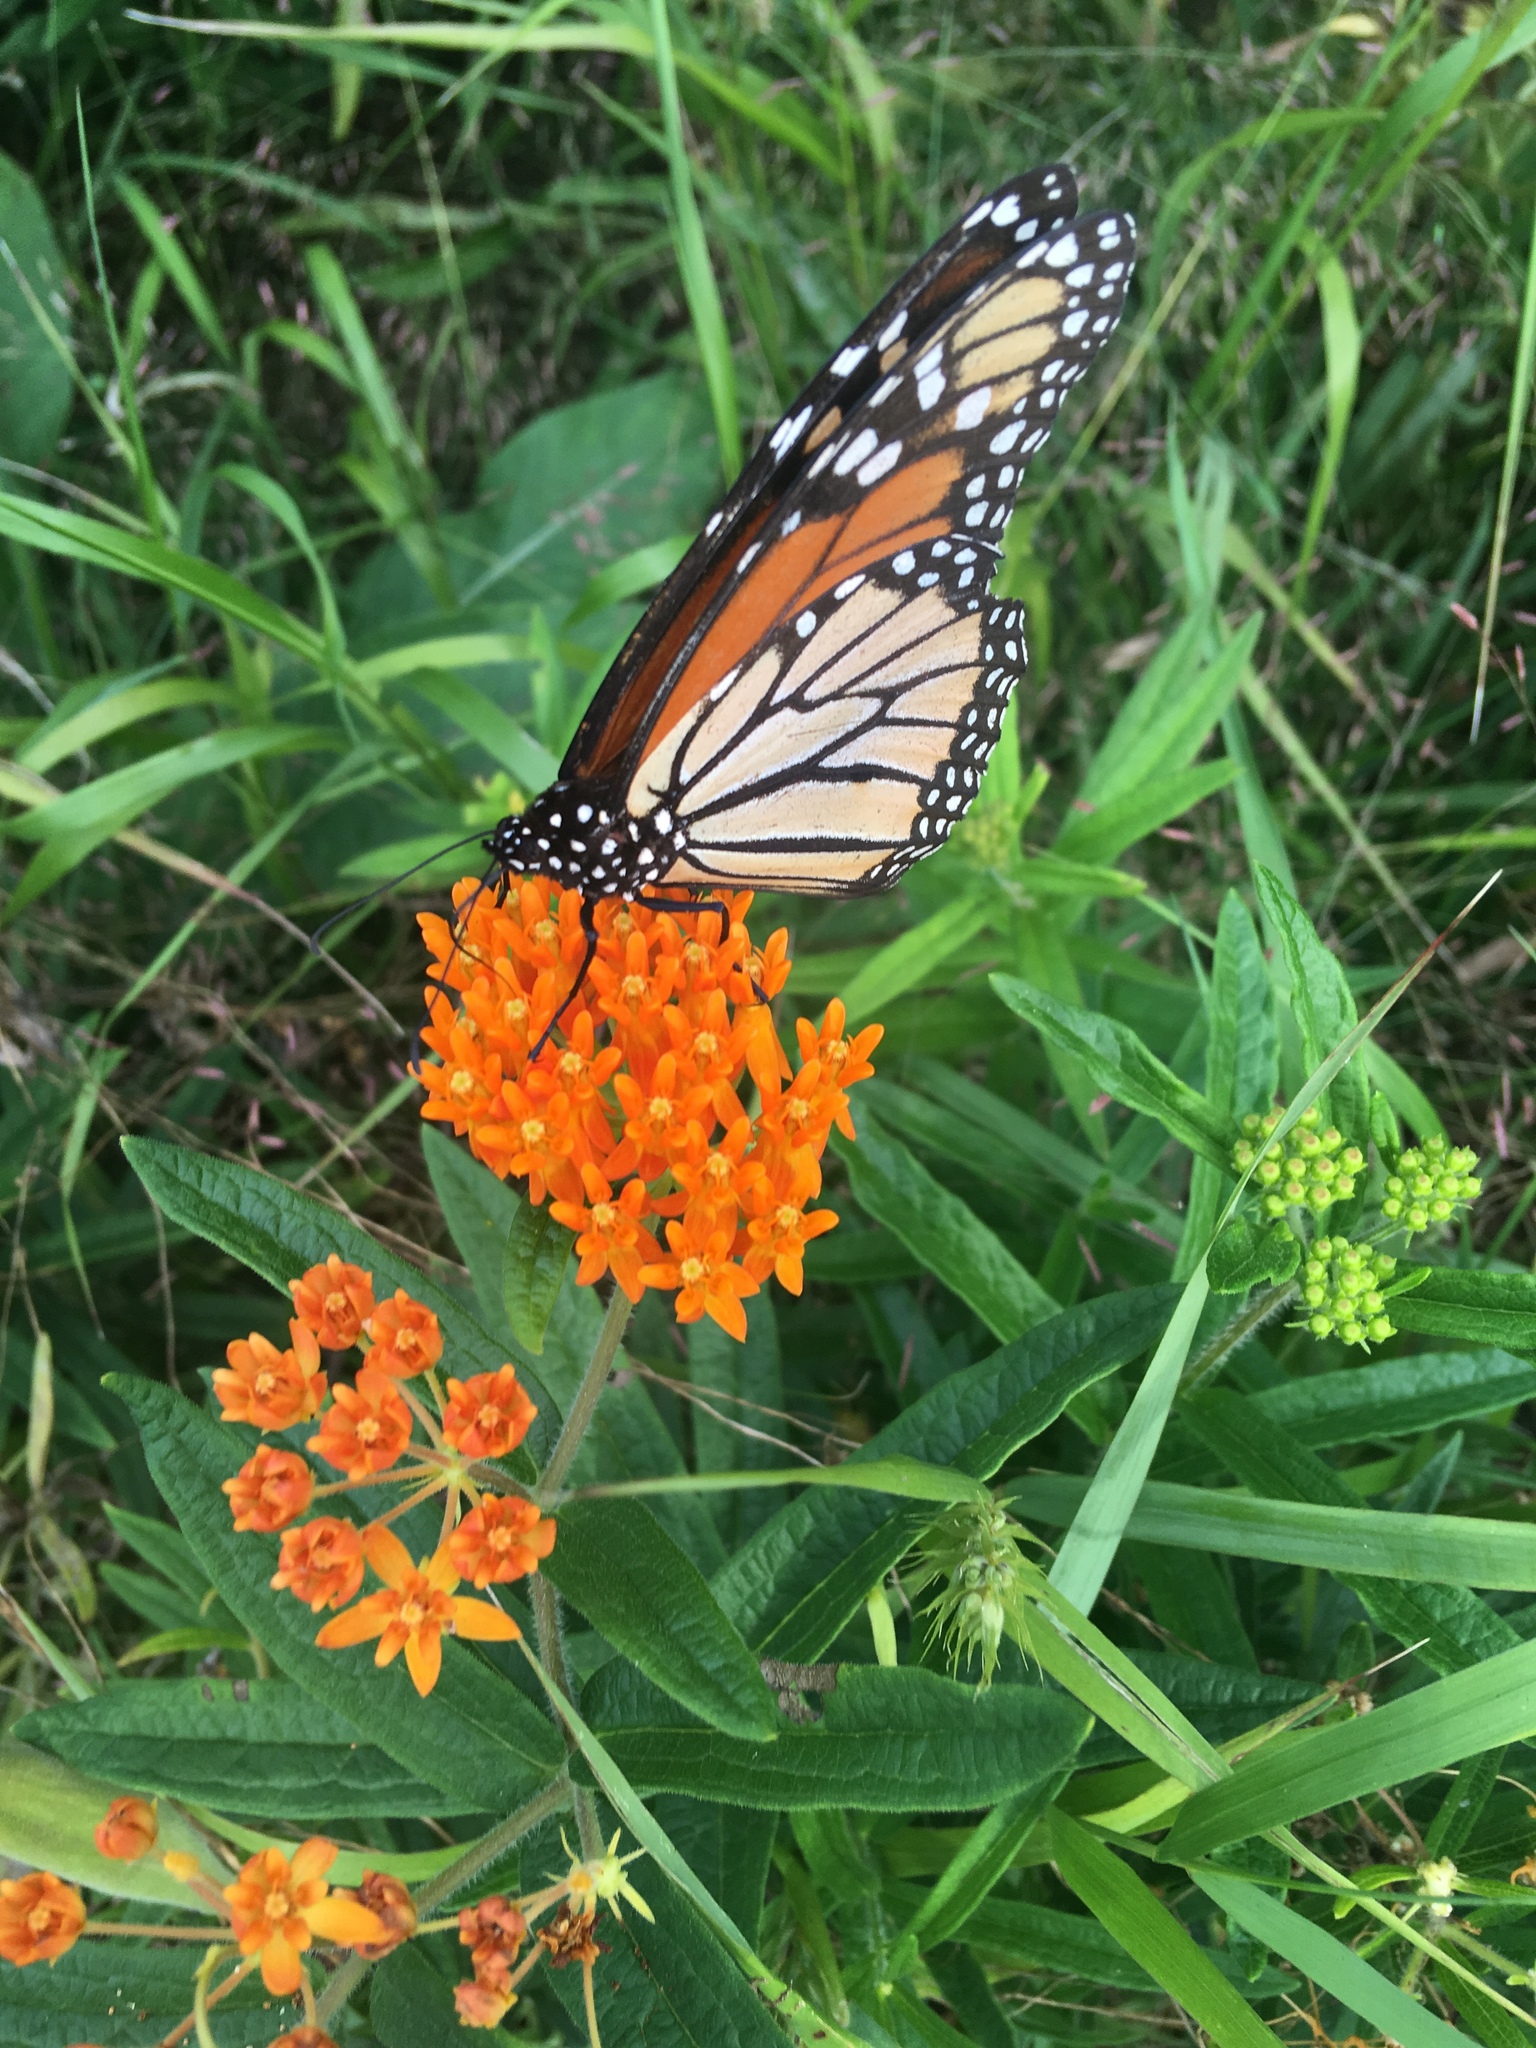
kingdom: Animalia
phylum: Arthropoda
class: Insecta
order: Lepidoptera
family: Nymphalidae
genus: Danaus
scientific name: Danaus plexippus
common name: Monarch
